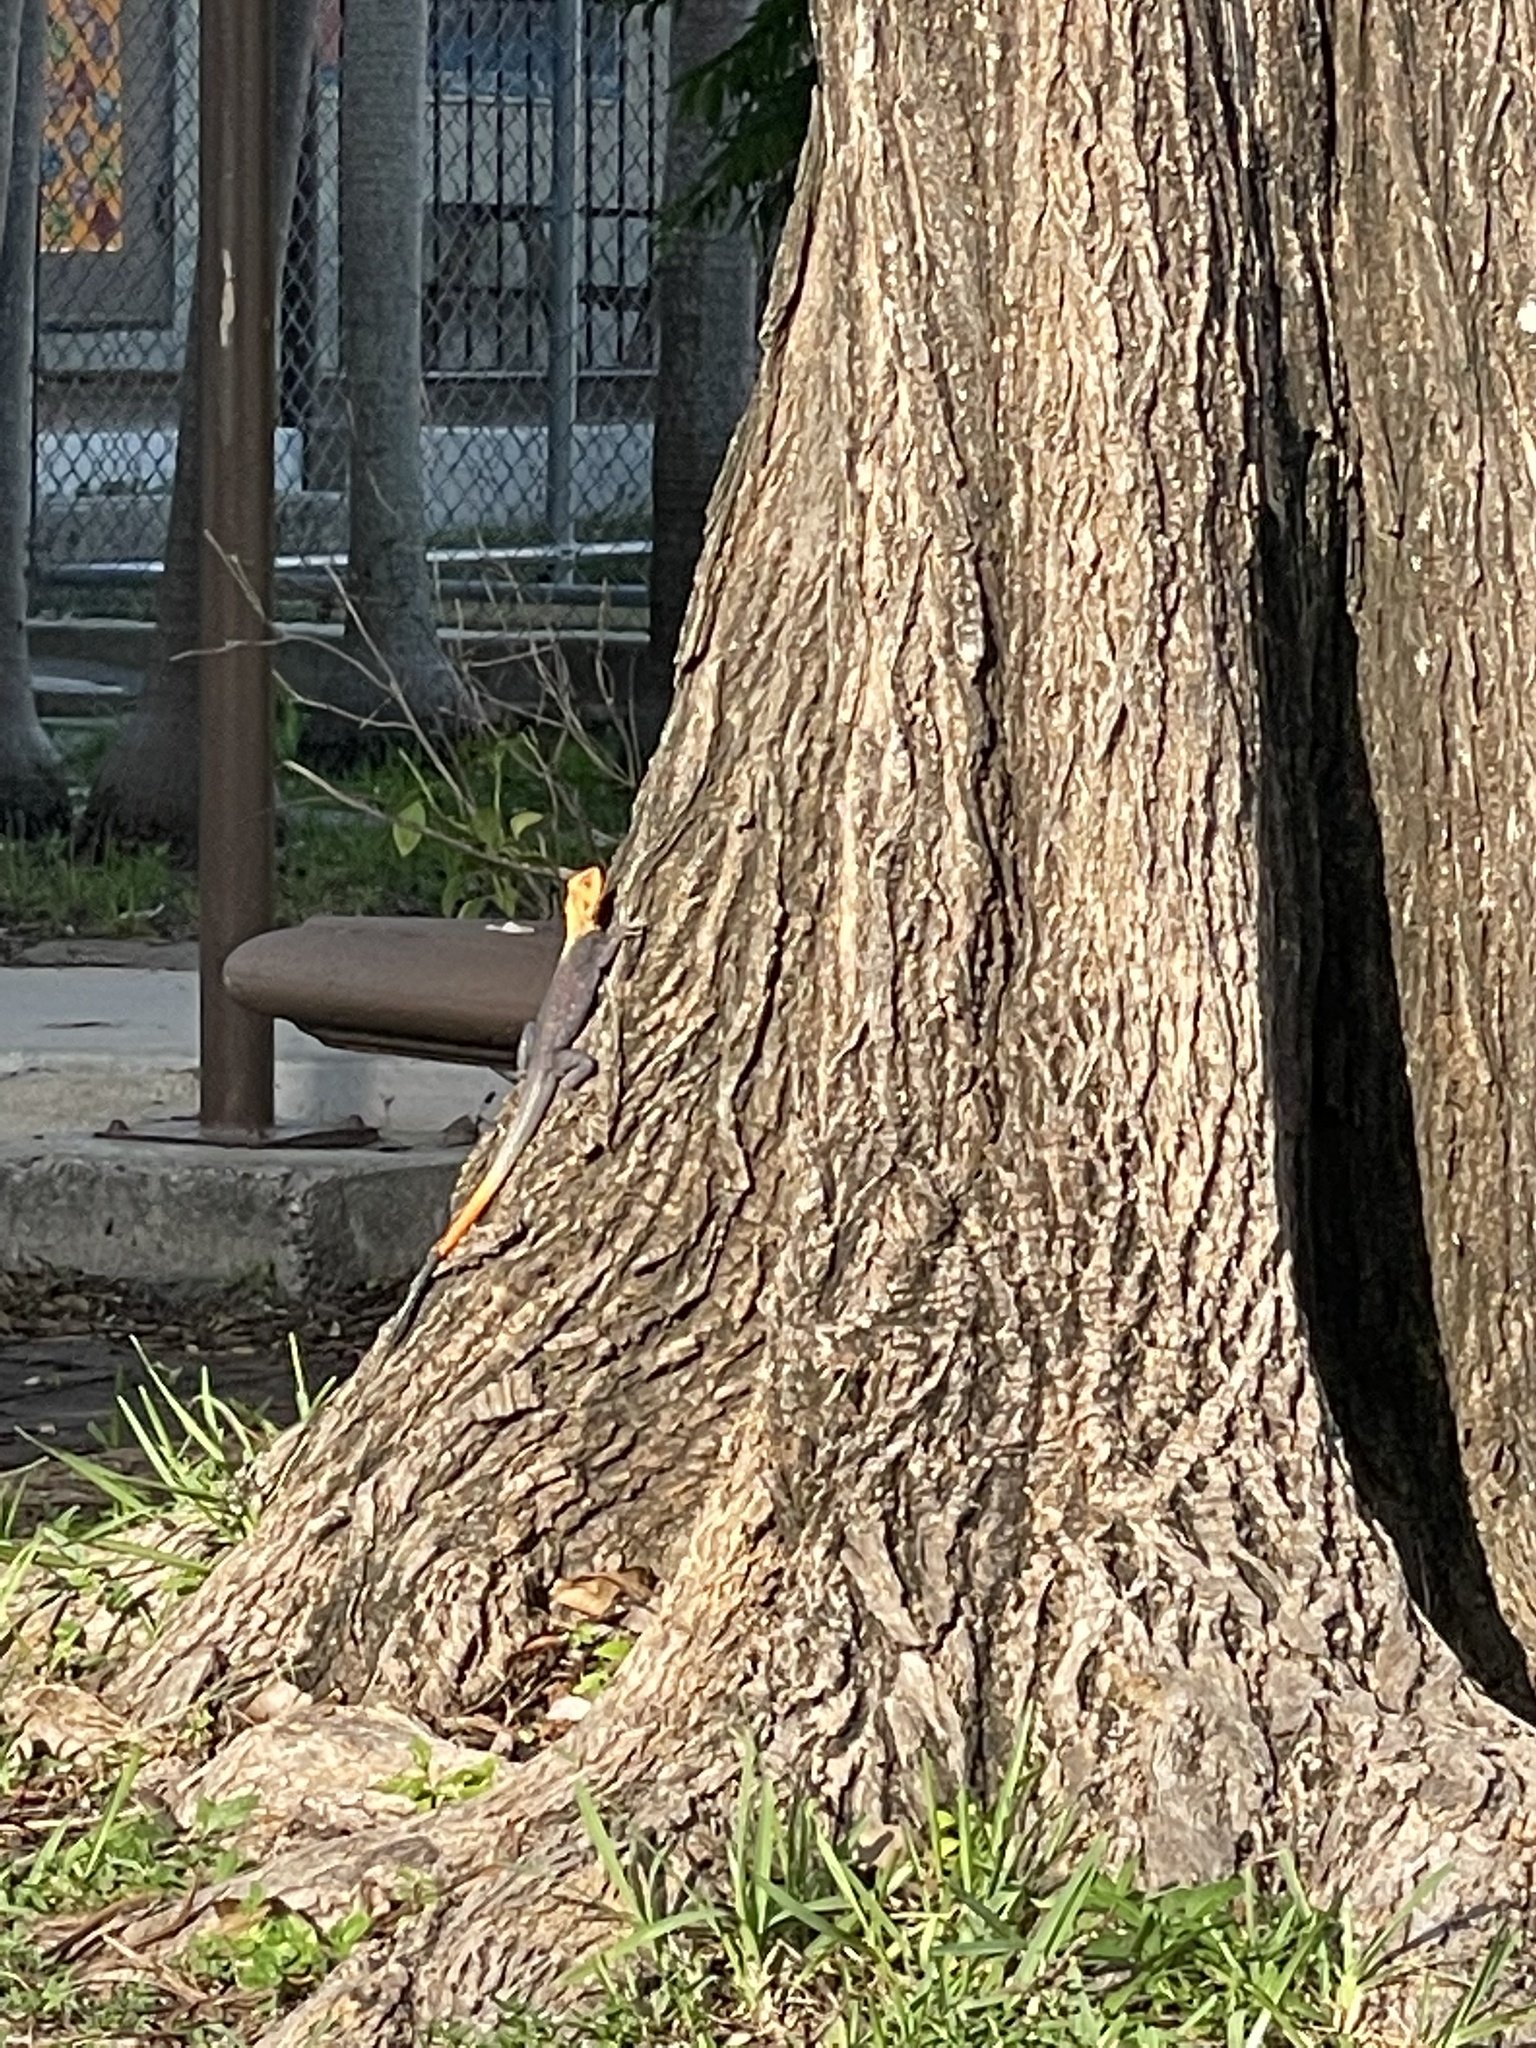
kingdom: Animalia
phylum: Chordata
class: Squamata
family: Agamidae
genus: Agama
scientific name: Agama picticauda
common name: Red-headed agama
